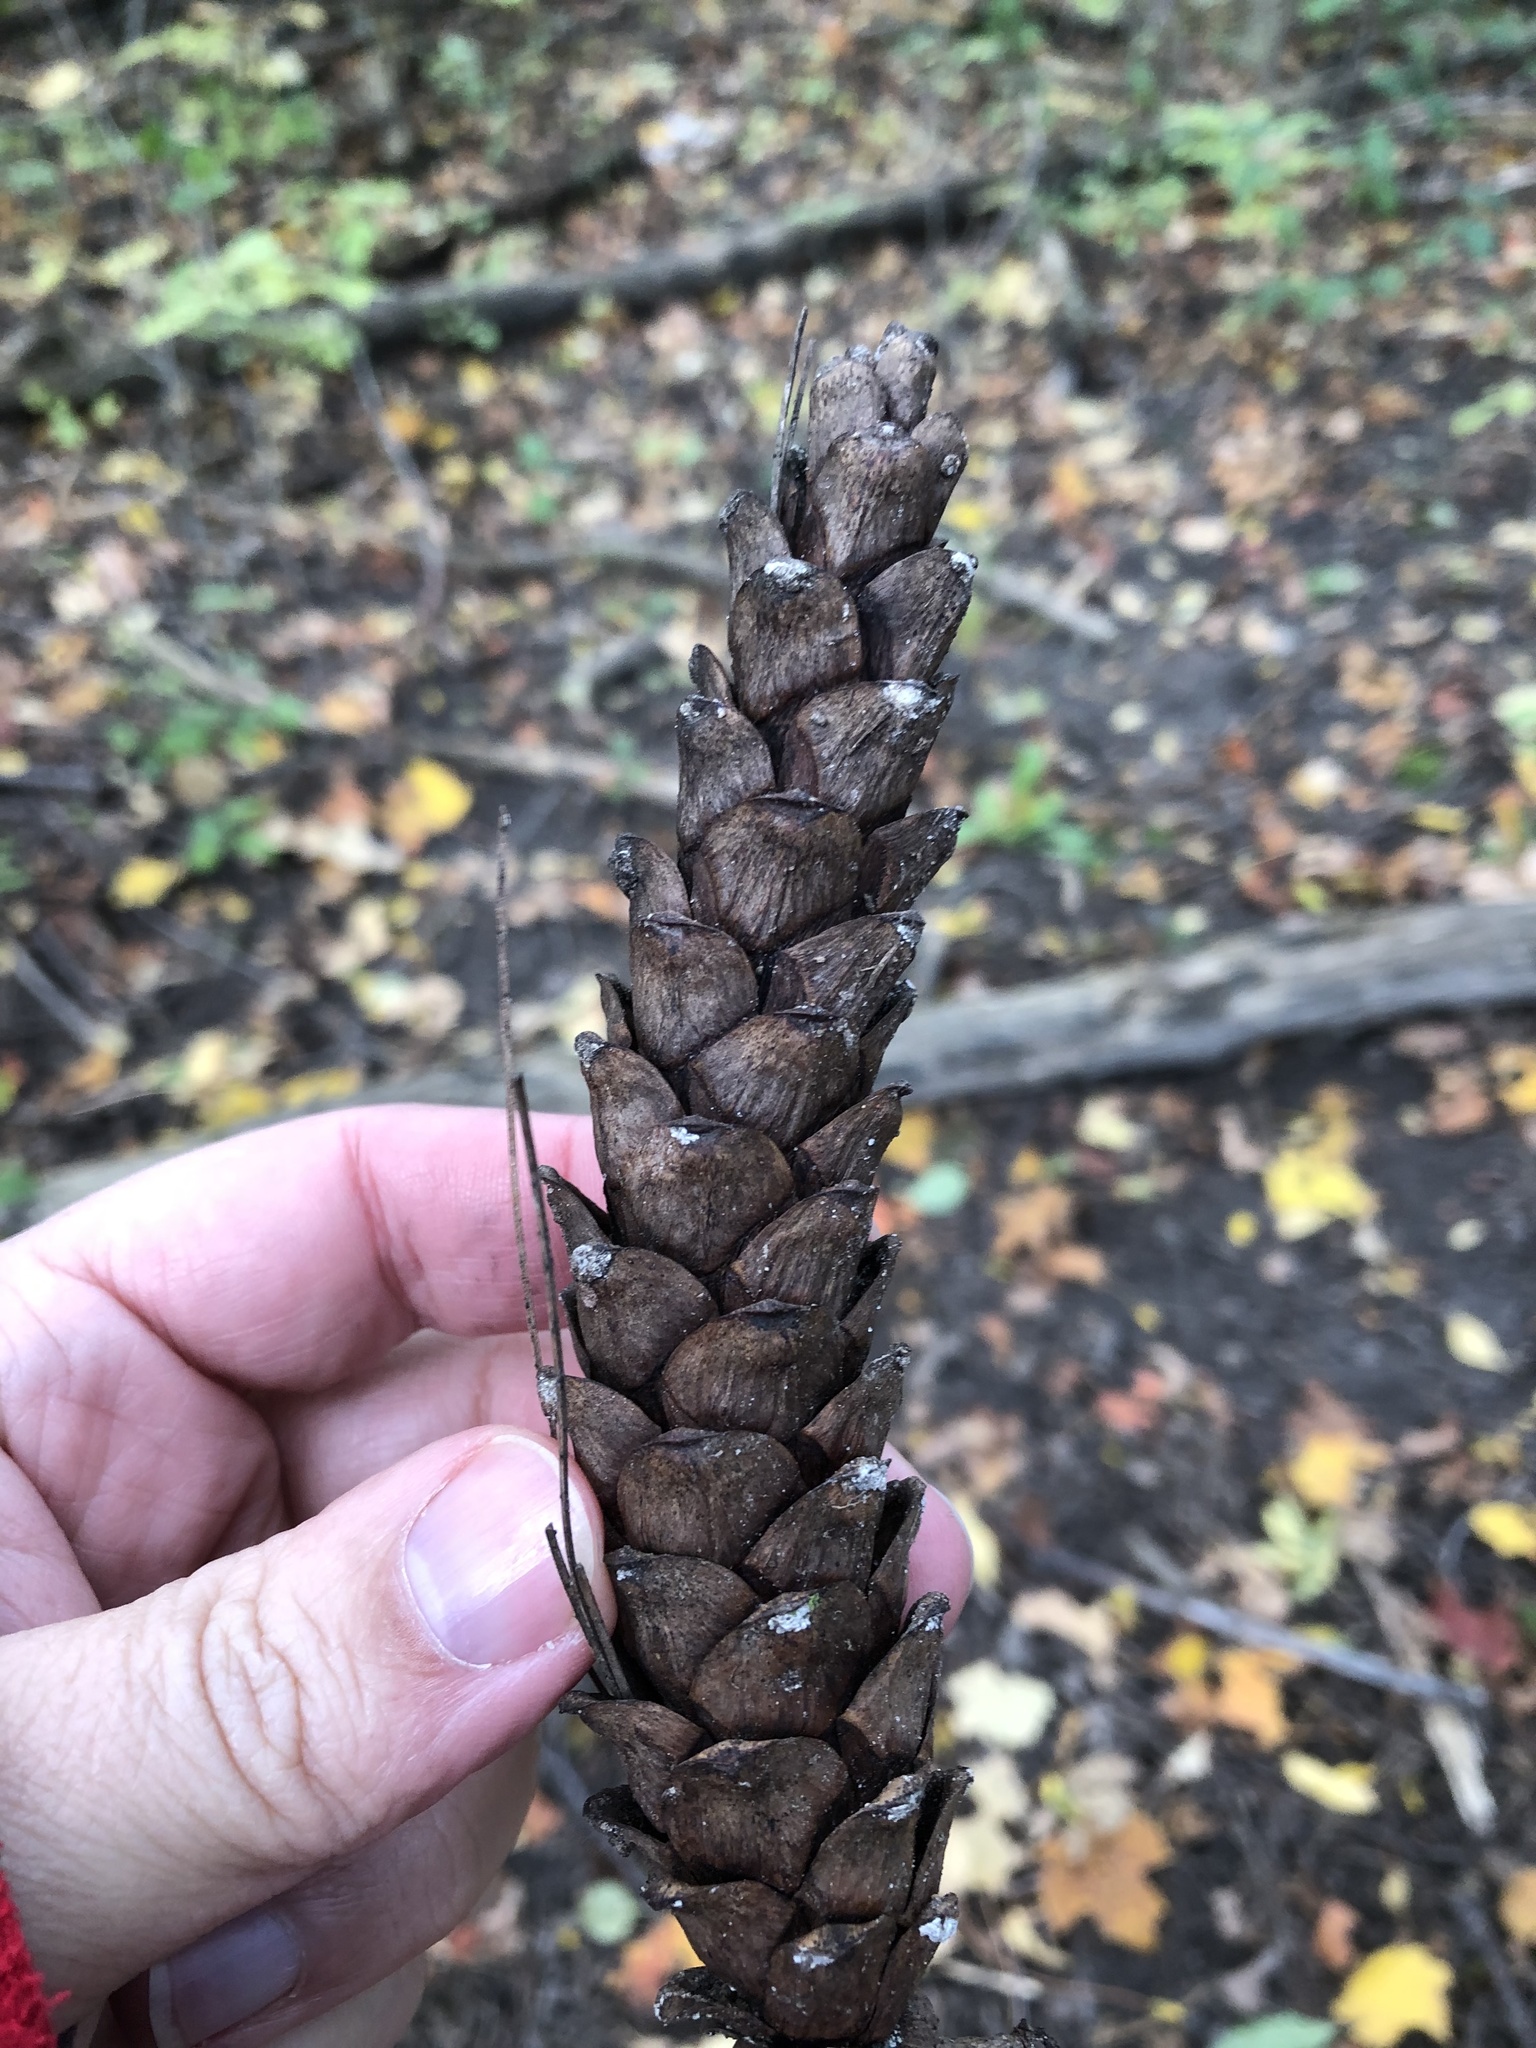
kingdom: Plantae
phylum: Tracheophyta
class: Pinopsida
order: Pinales
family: Pinaceae
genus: Pinus
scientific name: Pinus strobus
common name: Weymouth pine
